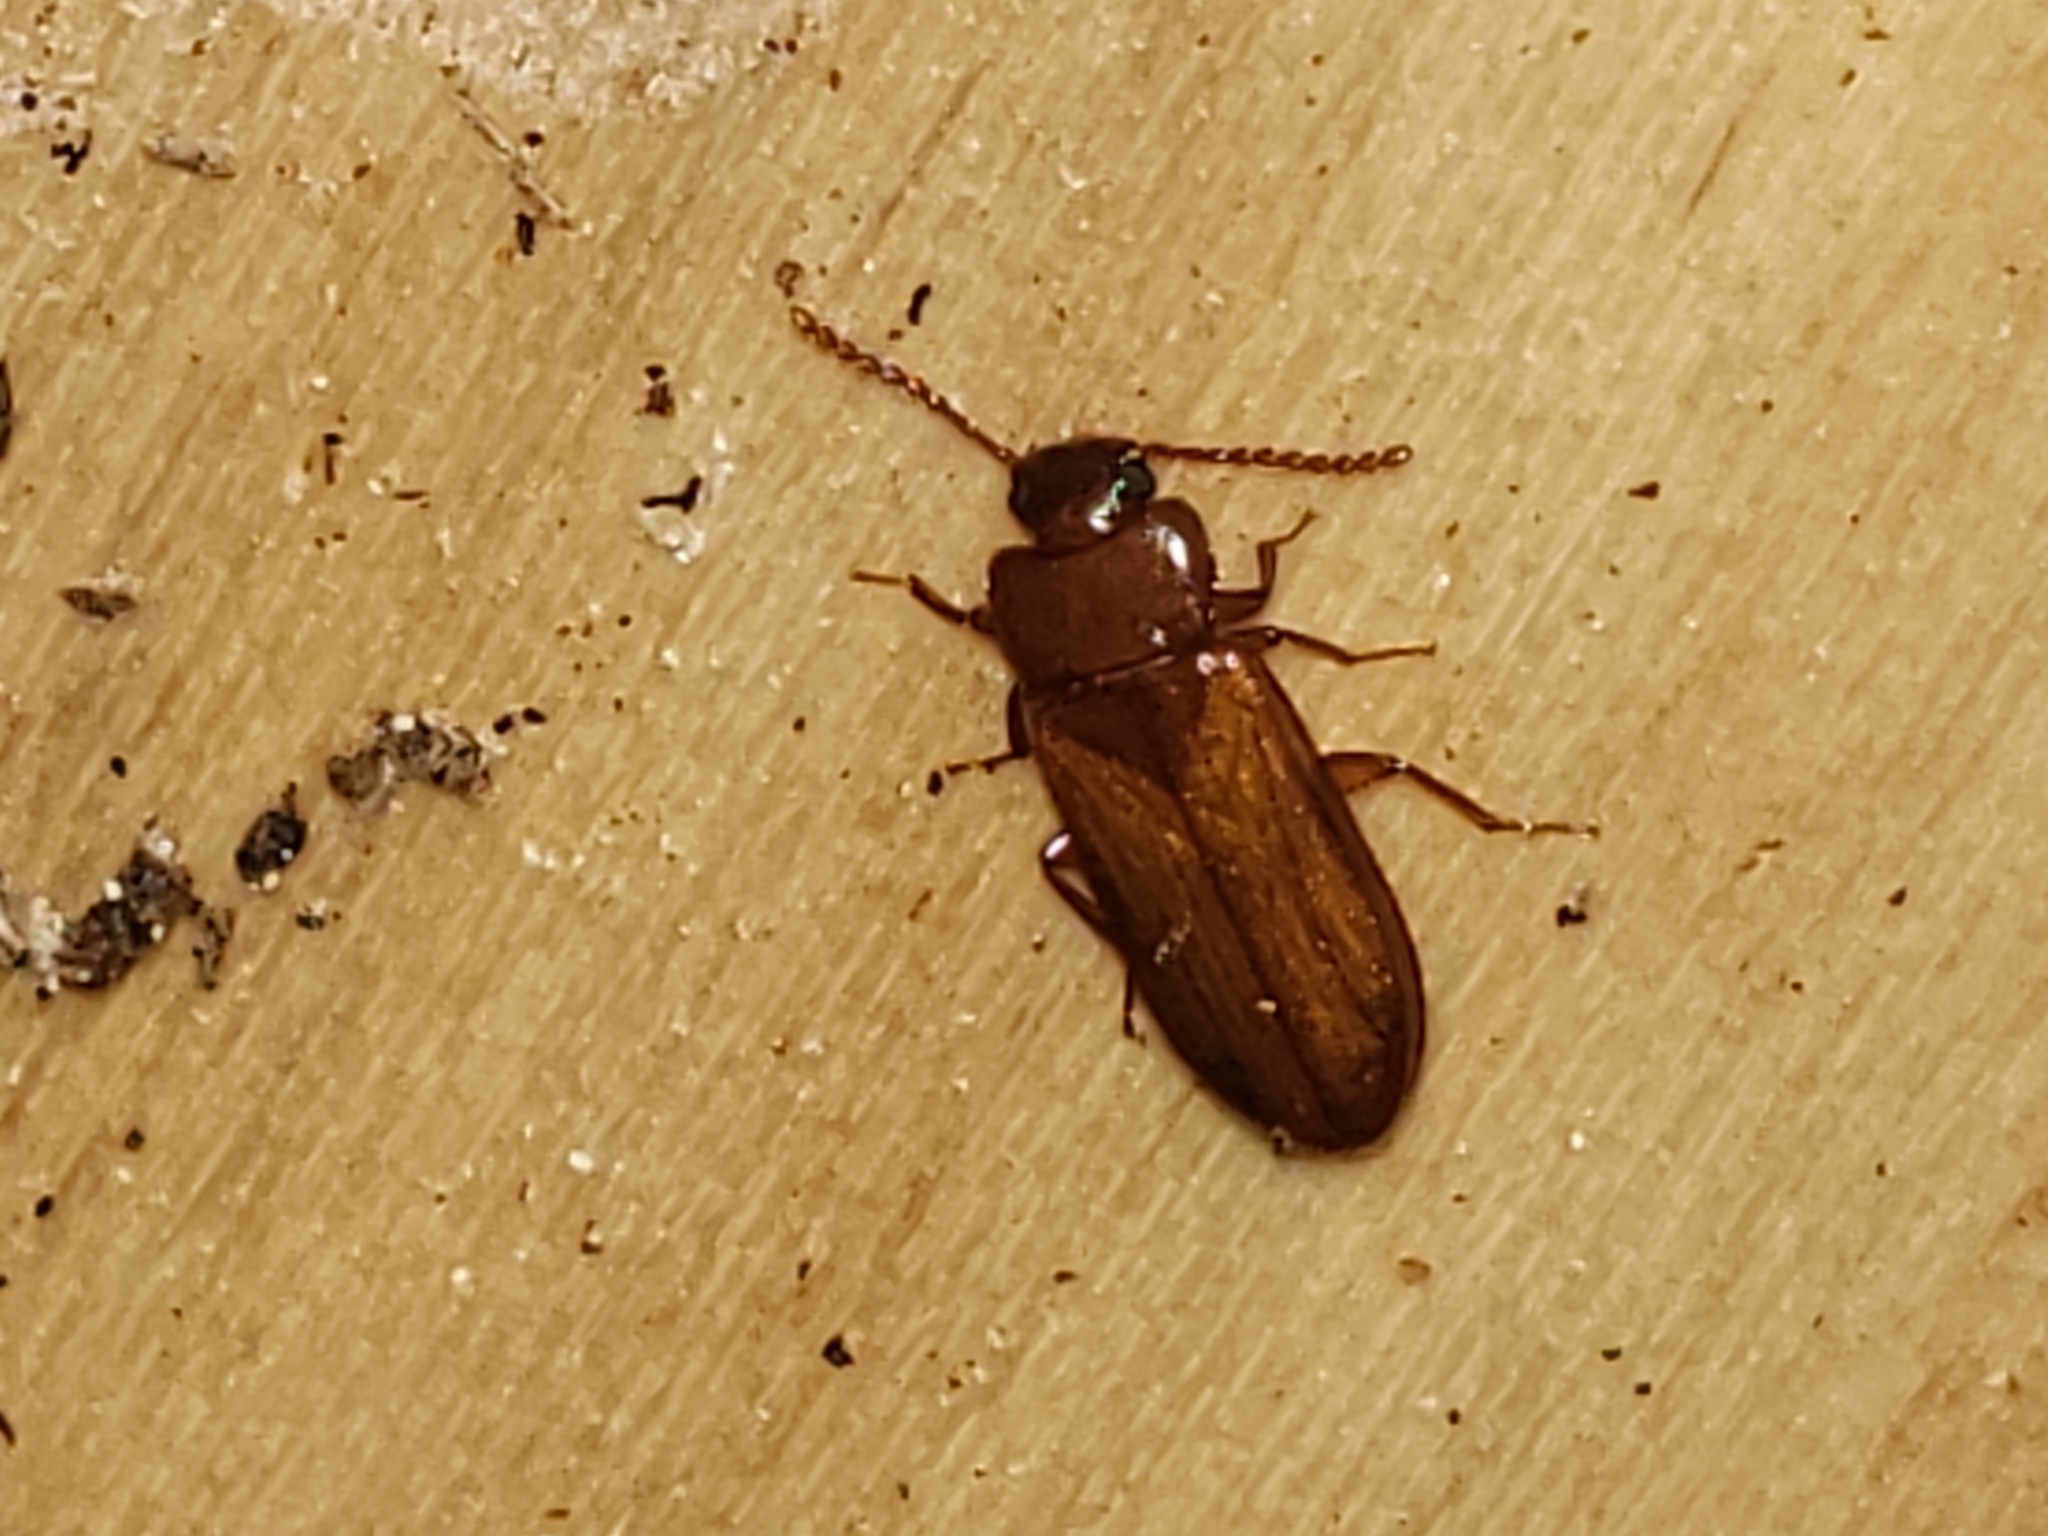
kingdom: Animalia
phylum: Arthropoda
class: Insecta
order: Coleoptera
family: Tenebrionidae
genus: Adelina
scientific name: Adelina pallida
